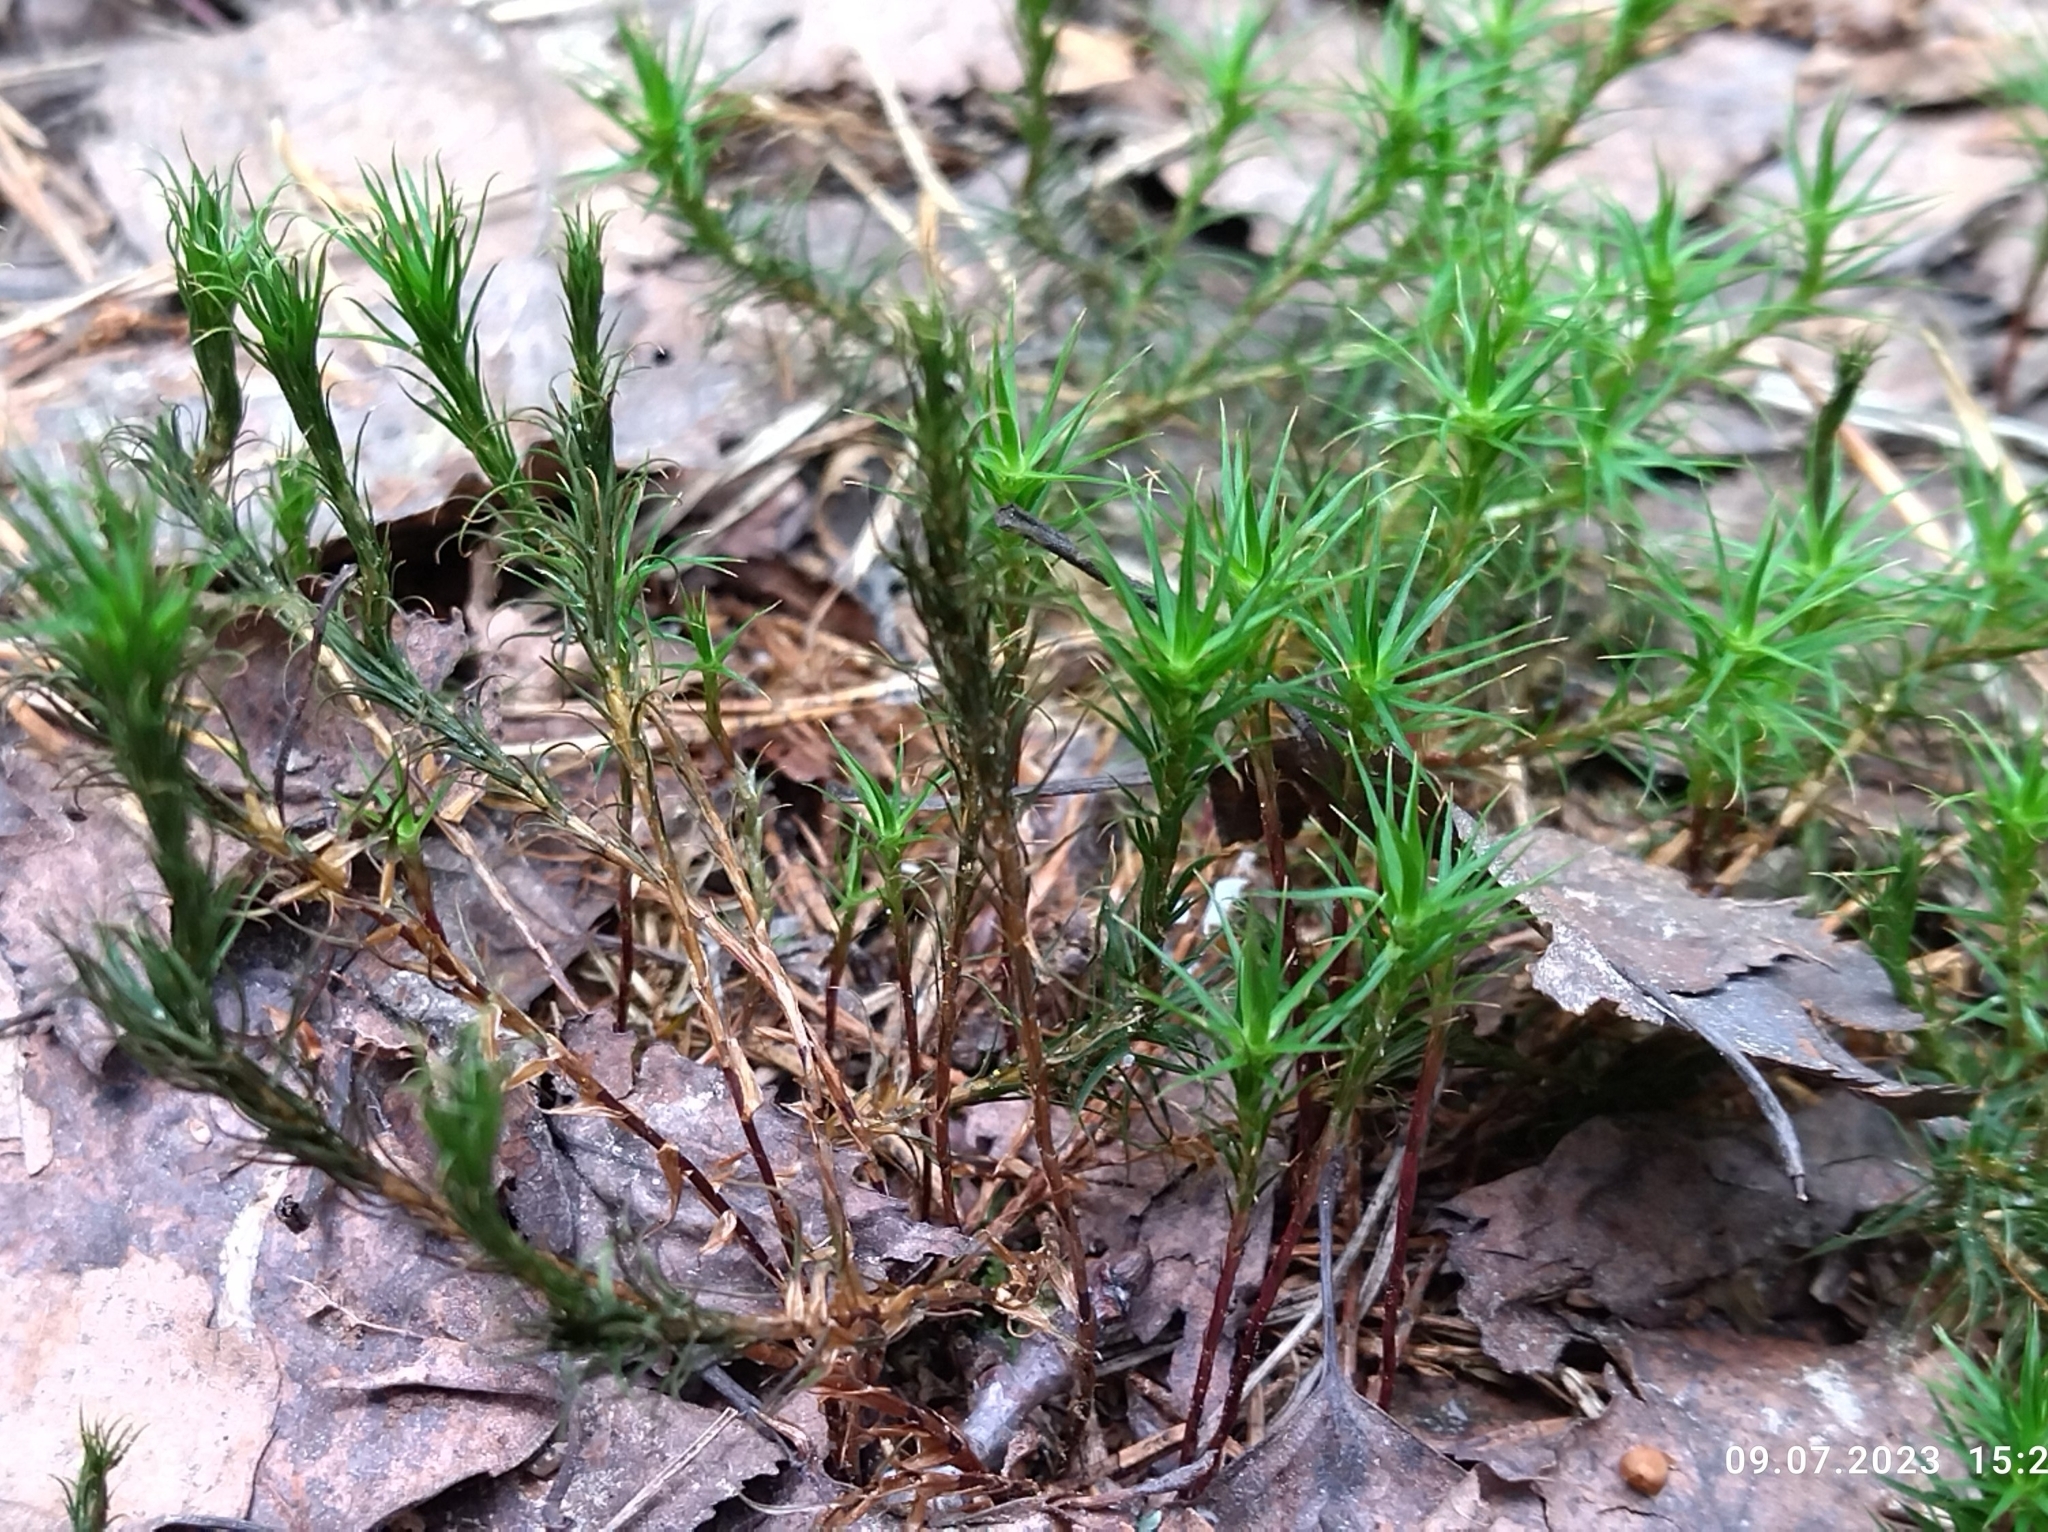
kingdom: Plantae
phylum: Bryophyta
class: Polytrichopsida
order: Polytrichales
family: Polytrichaceae
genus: Polytrichum
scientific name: Polytrichum commune
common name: Common haircap
